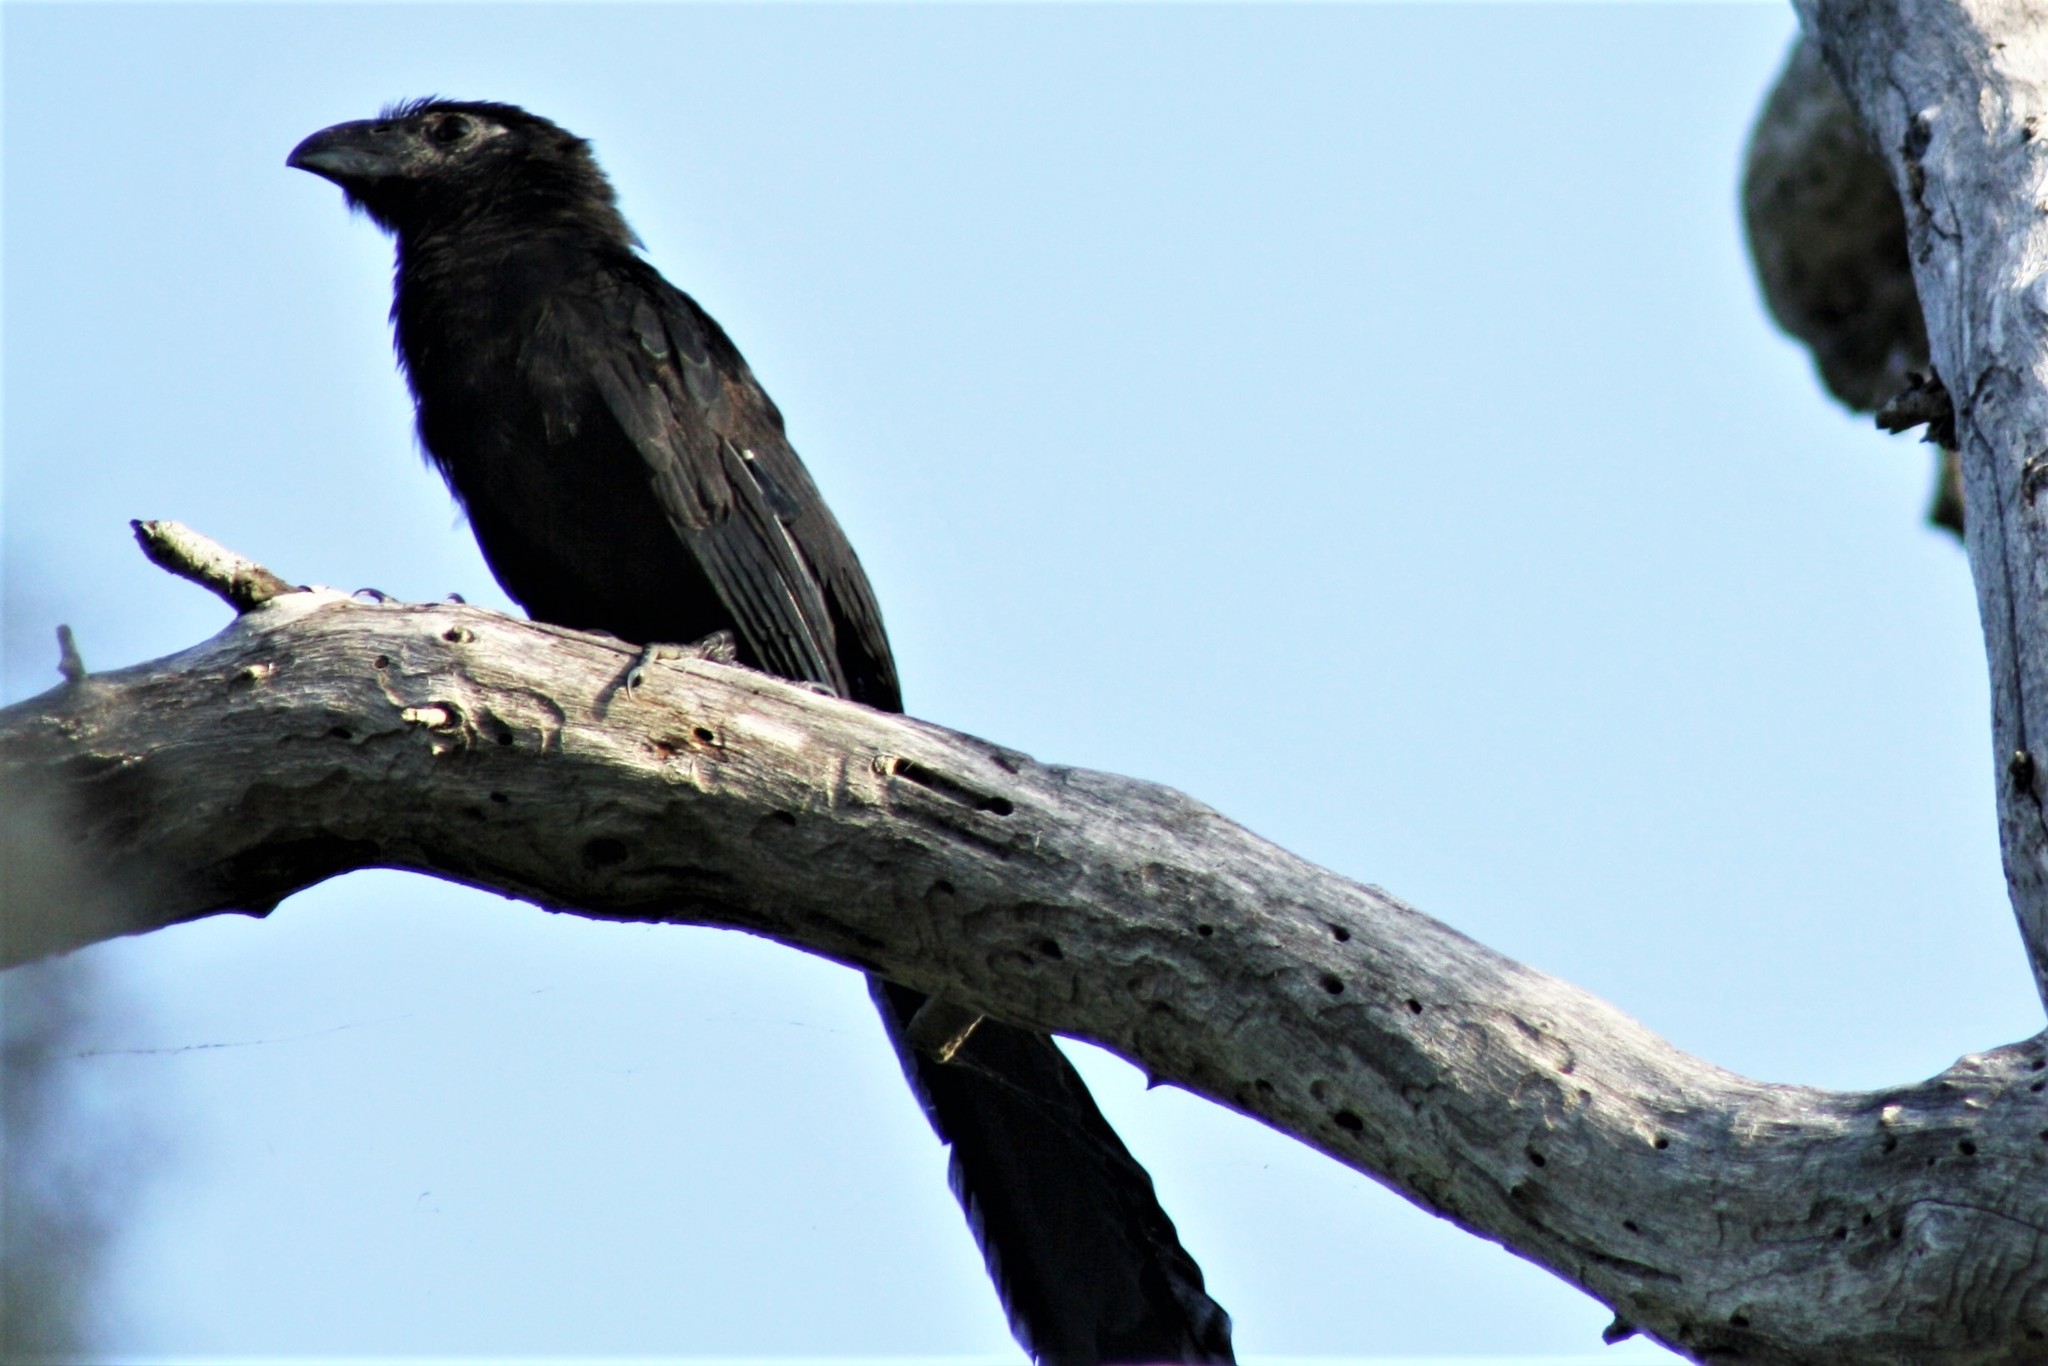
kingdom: Animalia
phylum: Chordata
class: Aves
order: Cuculiformes
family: Cuculidae
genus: Crotophaga
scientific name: Crotophaga sulcirostris
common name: Groove-billed ani
